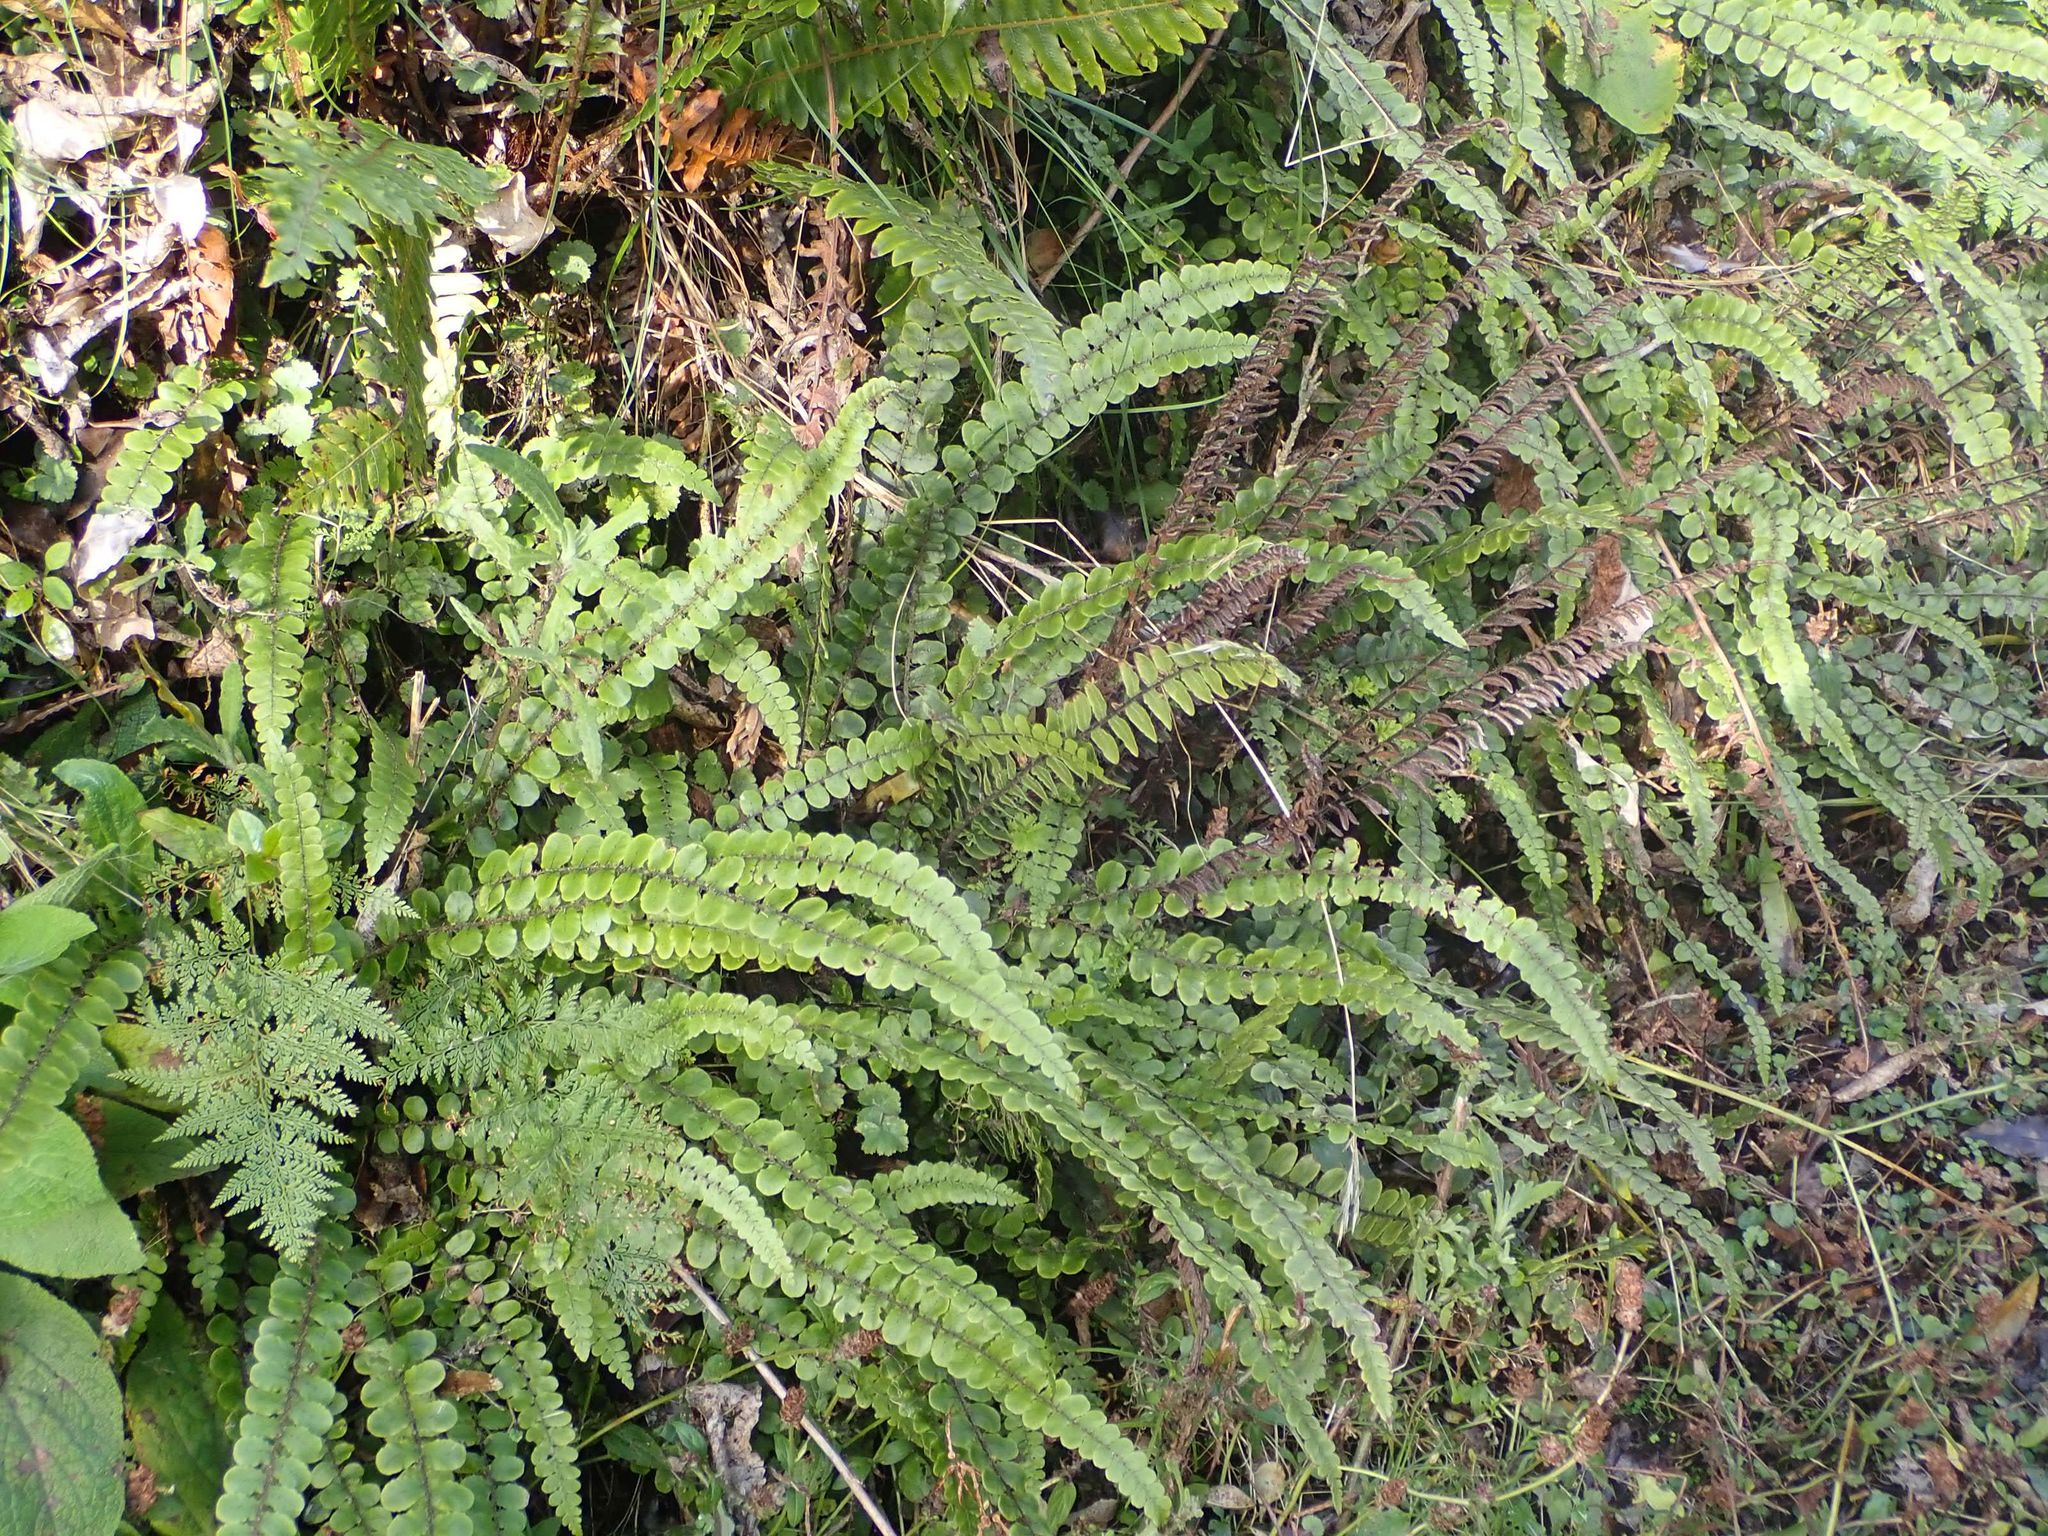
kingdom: Plantae
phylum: Tracheophyta
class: Polypodiopsida
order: Polypodiales
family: Blechnaceae
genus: Cranfillia
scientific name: Cranfillia fluviatilis
